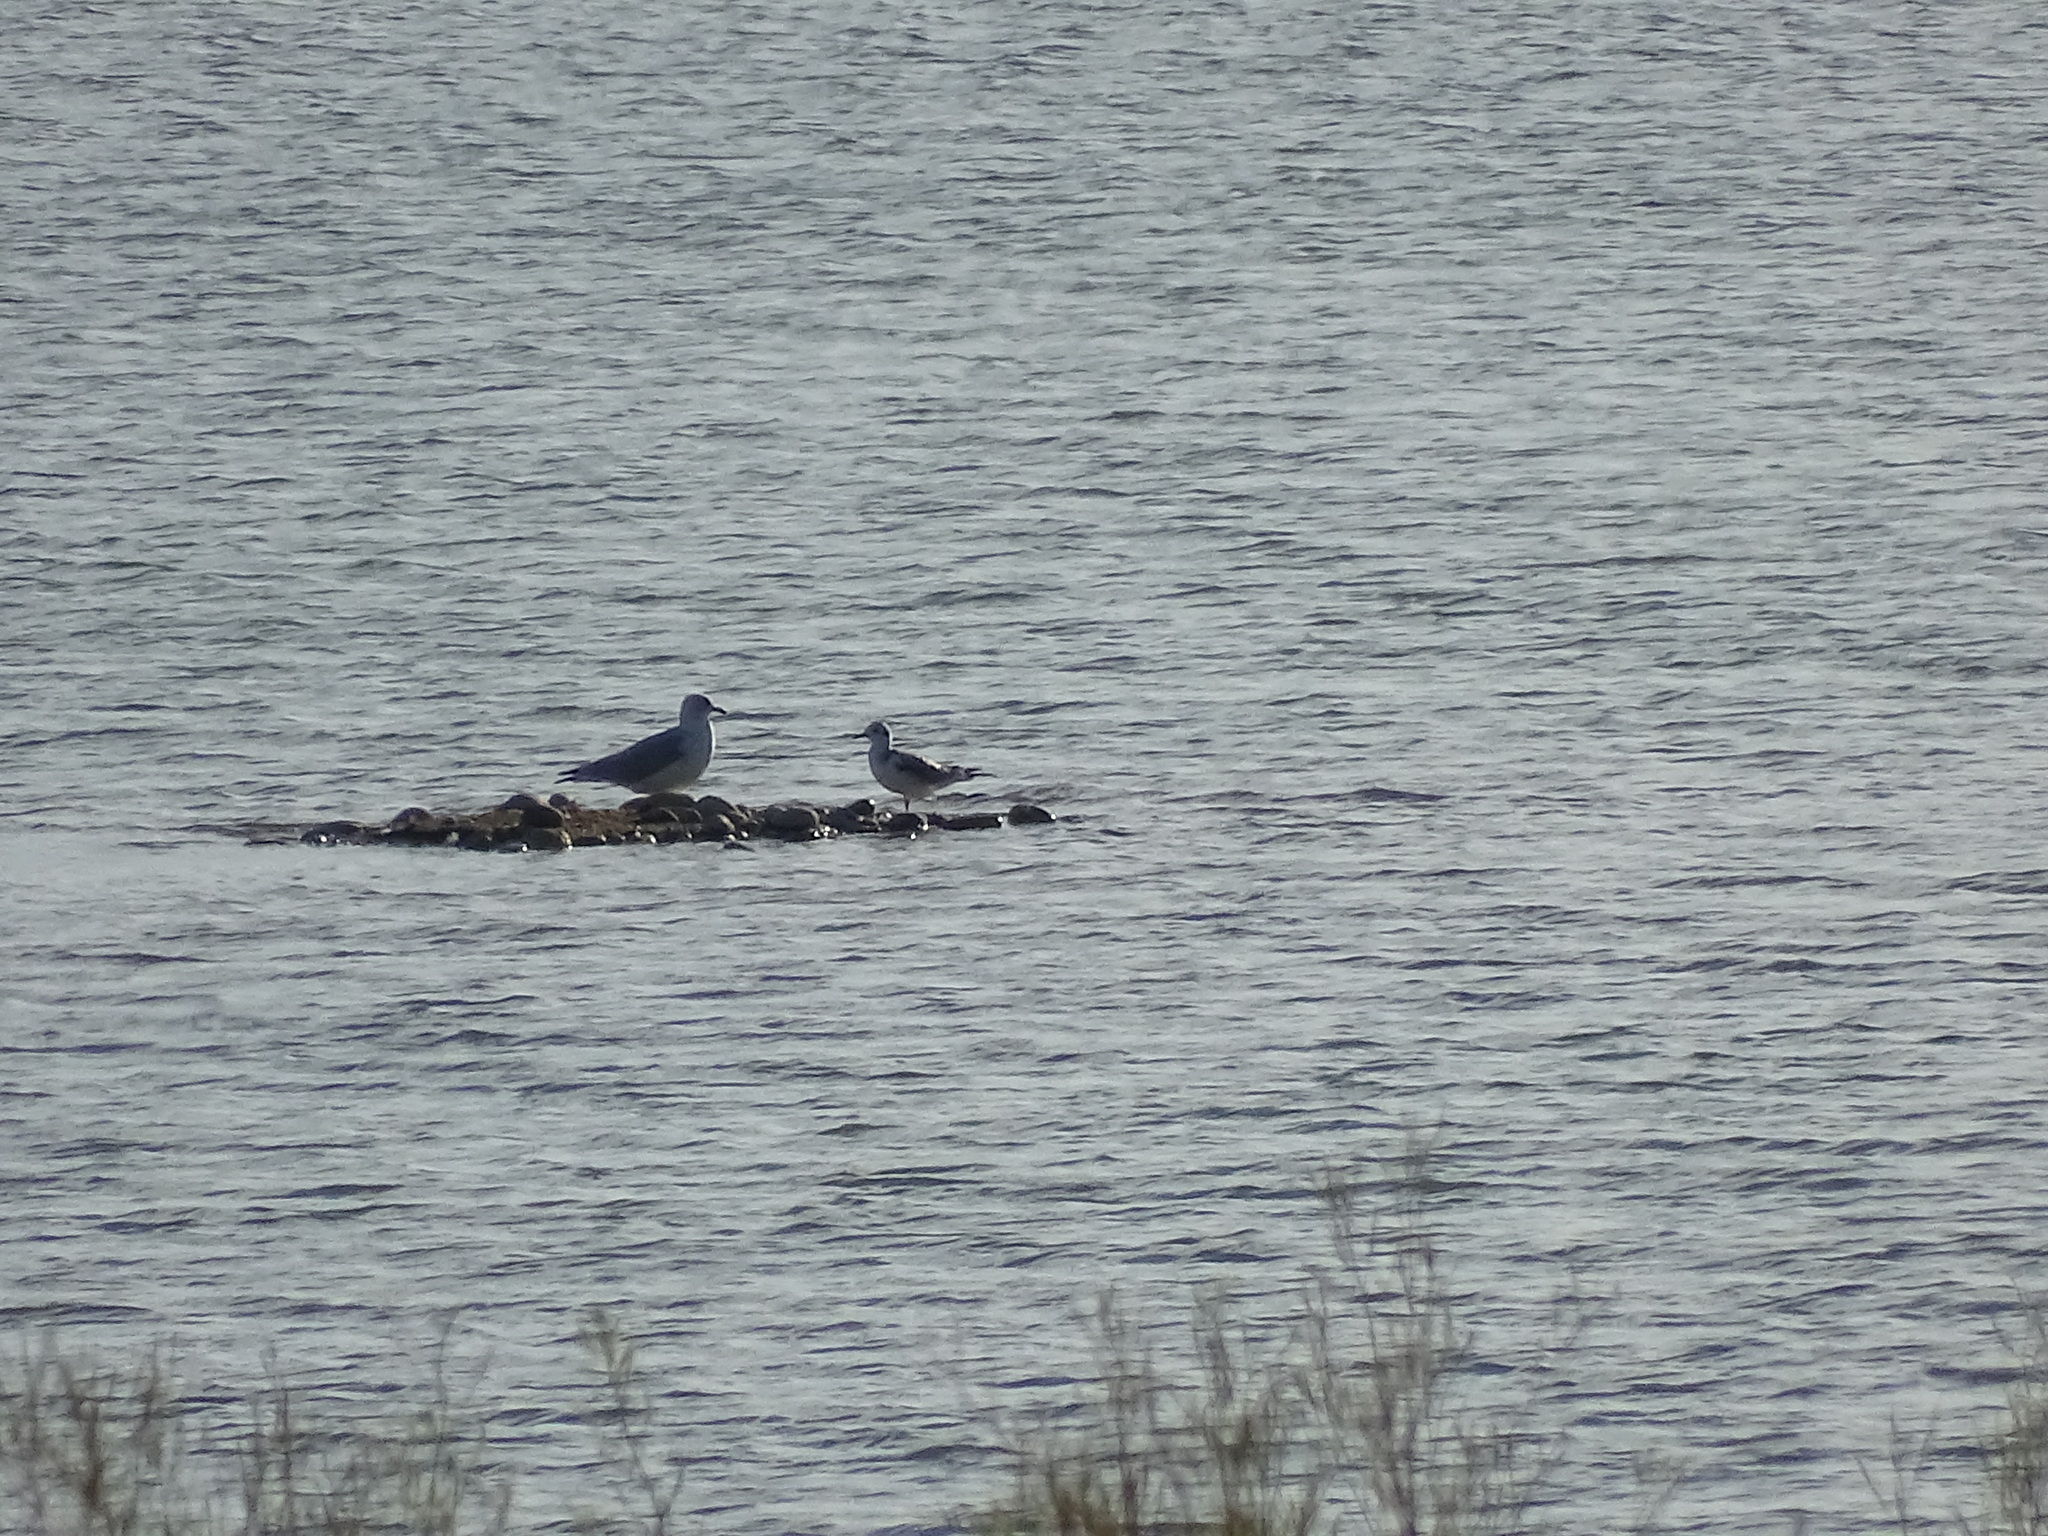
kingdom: Animalia
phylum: Chordata
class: Aves
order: Charadriiformes
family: Laridae
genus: Chroicocephalus
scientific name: Chroicocephalus philadelphia
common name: Bonaparte's gull
